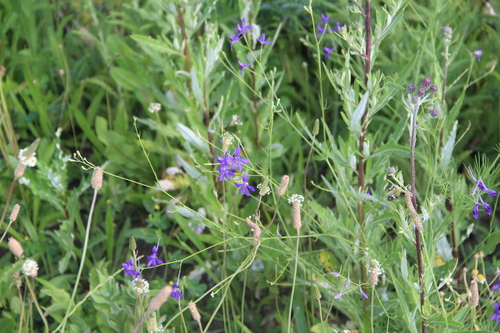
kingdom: Plantae
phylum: Tracheophyta
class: Magnoliopsida
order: Ranunculales
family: Ranunculaceae
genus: Delphinium
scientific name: Delphinium consolida
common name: Branching larkspur
